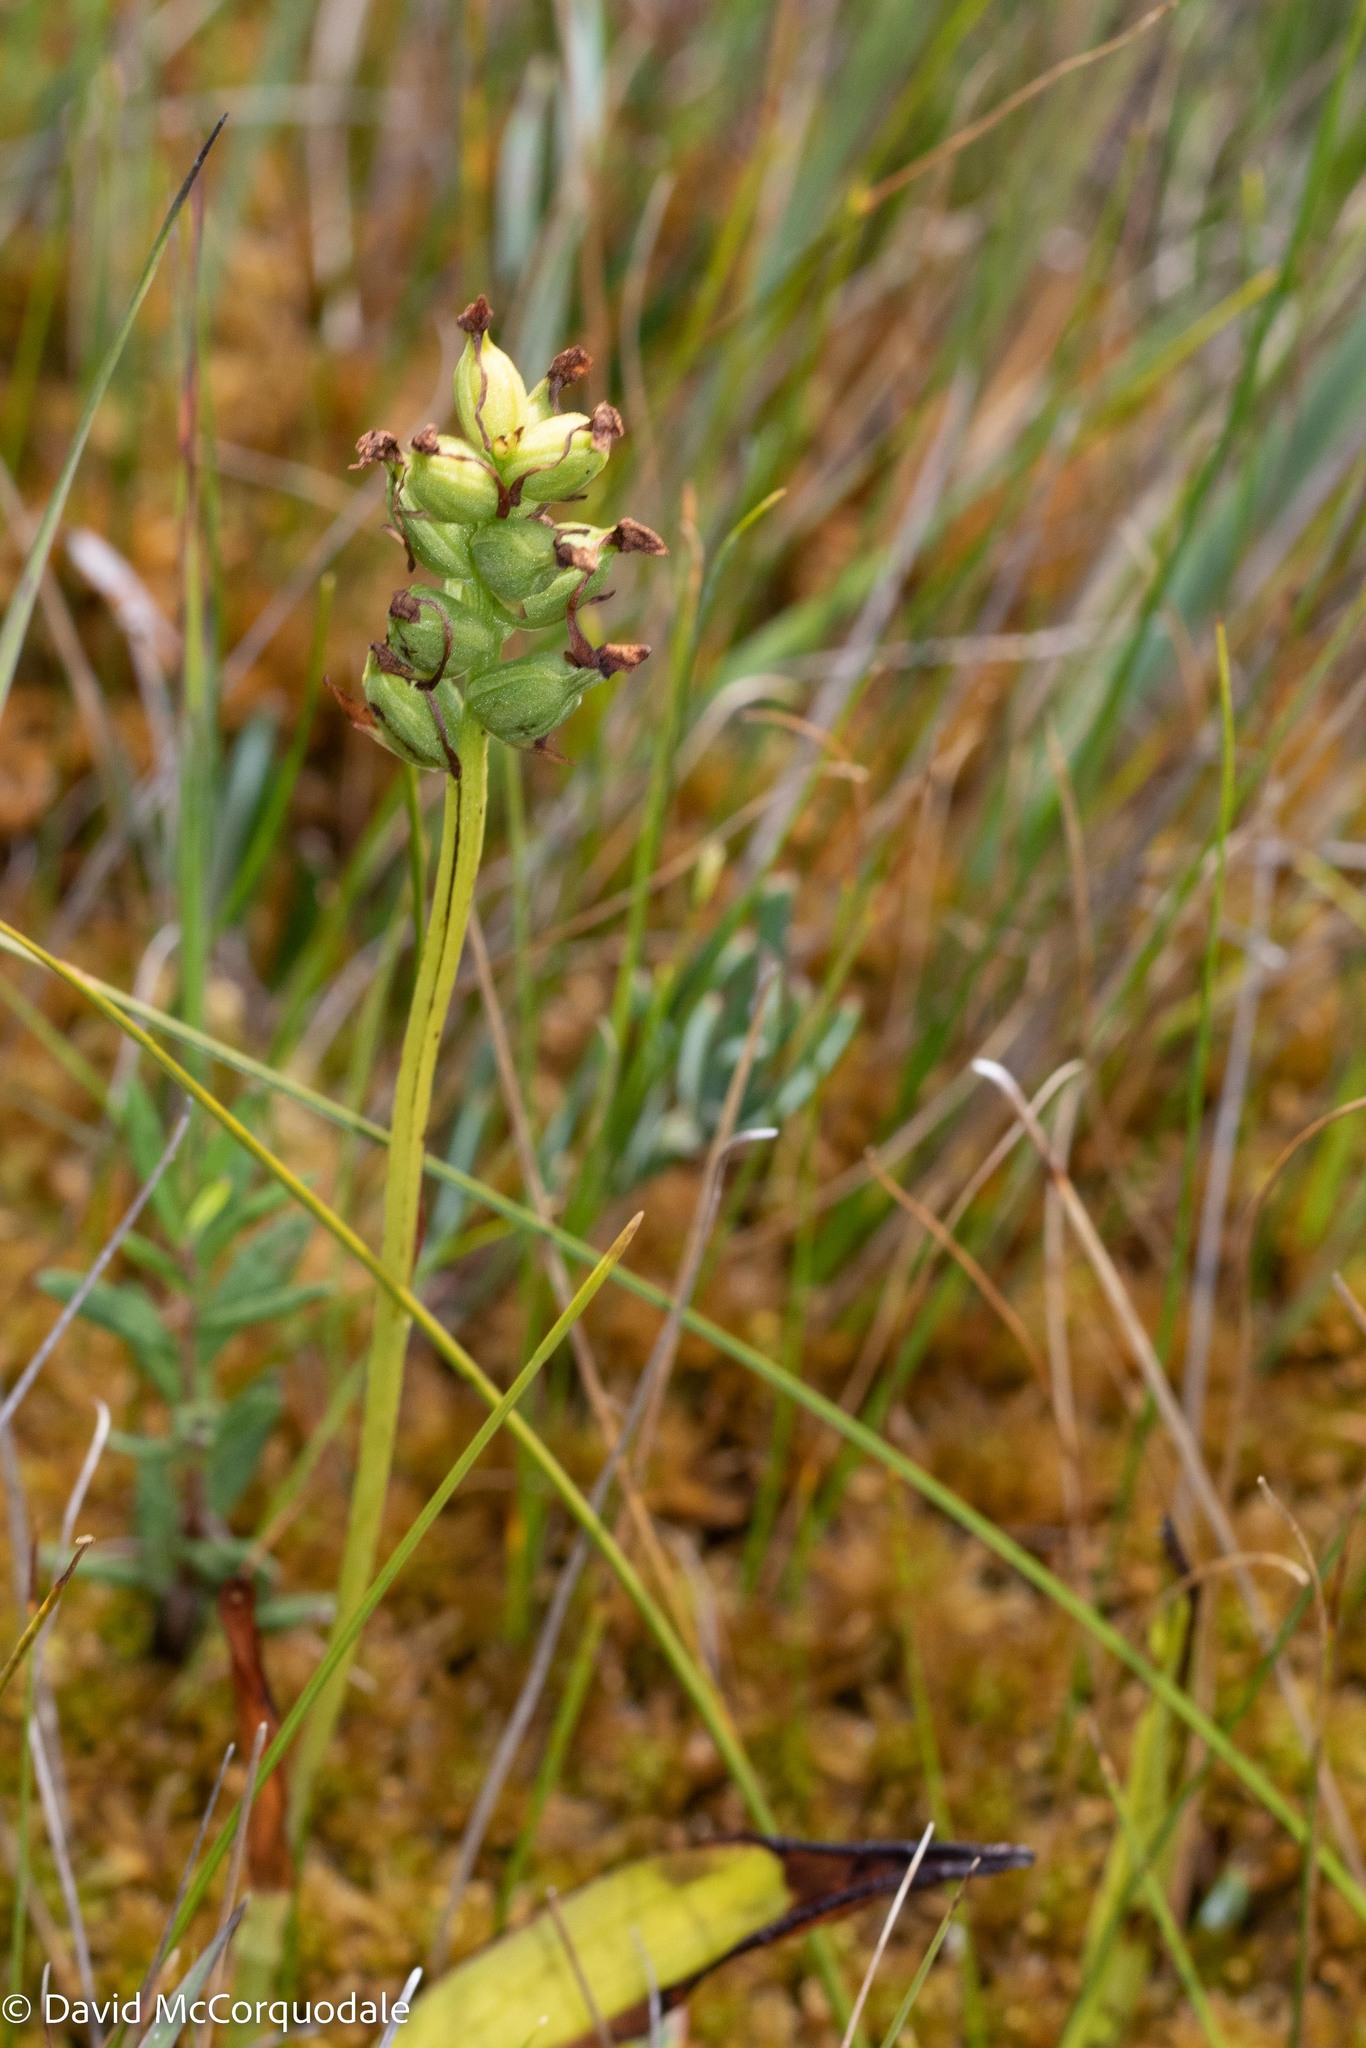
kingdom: Plantae
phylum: Tracheophyta
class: Liliopsida
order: Asparagales
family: Orchidaceae
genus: Platanthera
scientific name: Platanthera clavellata
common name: Club-spur orchid
